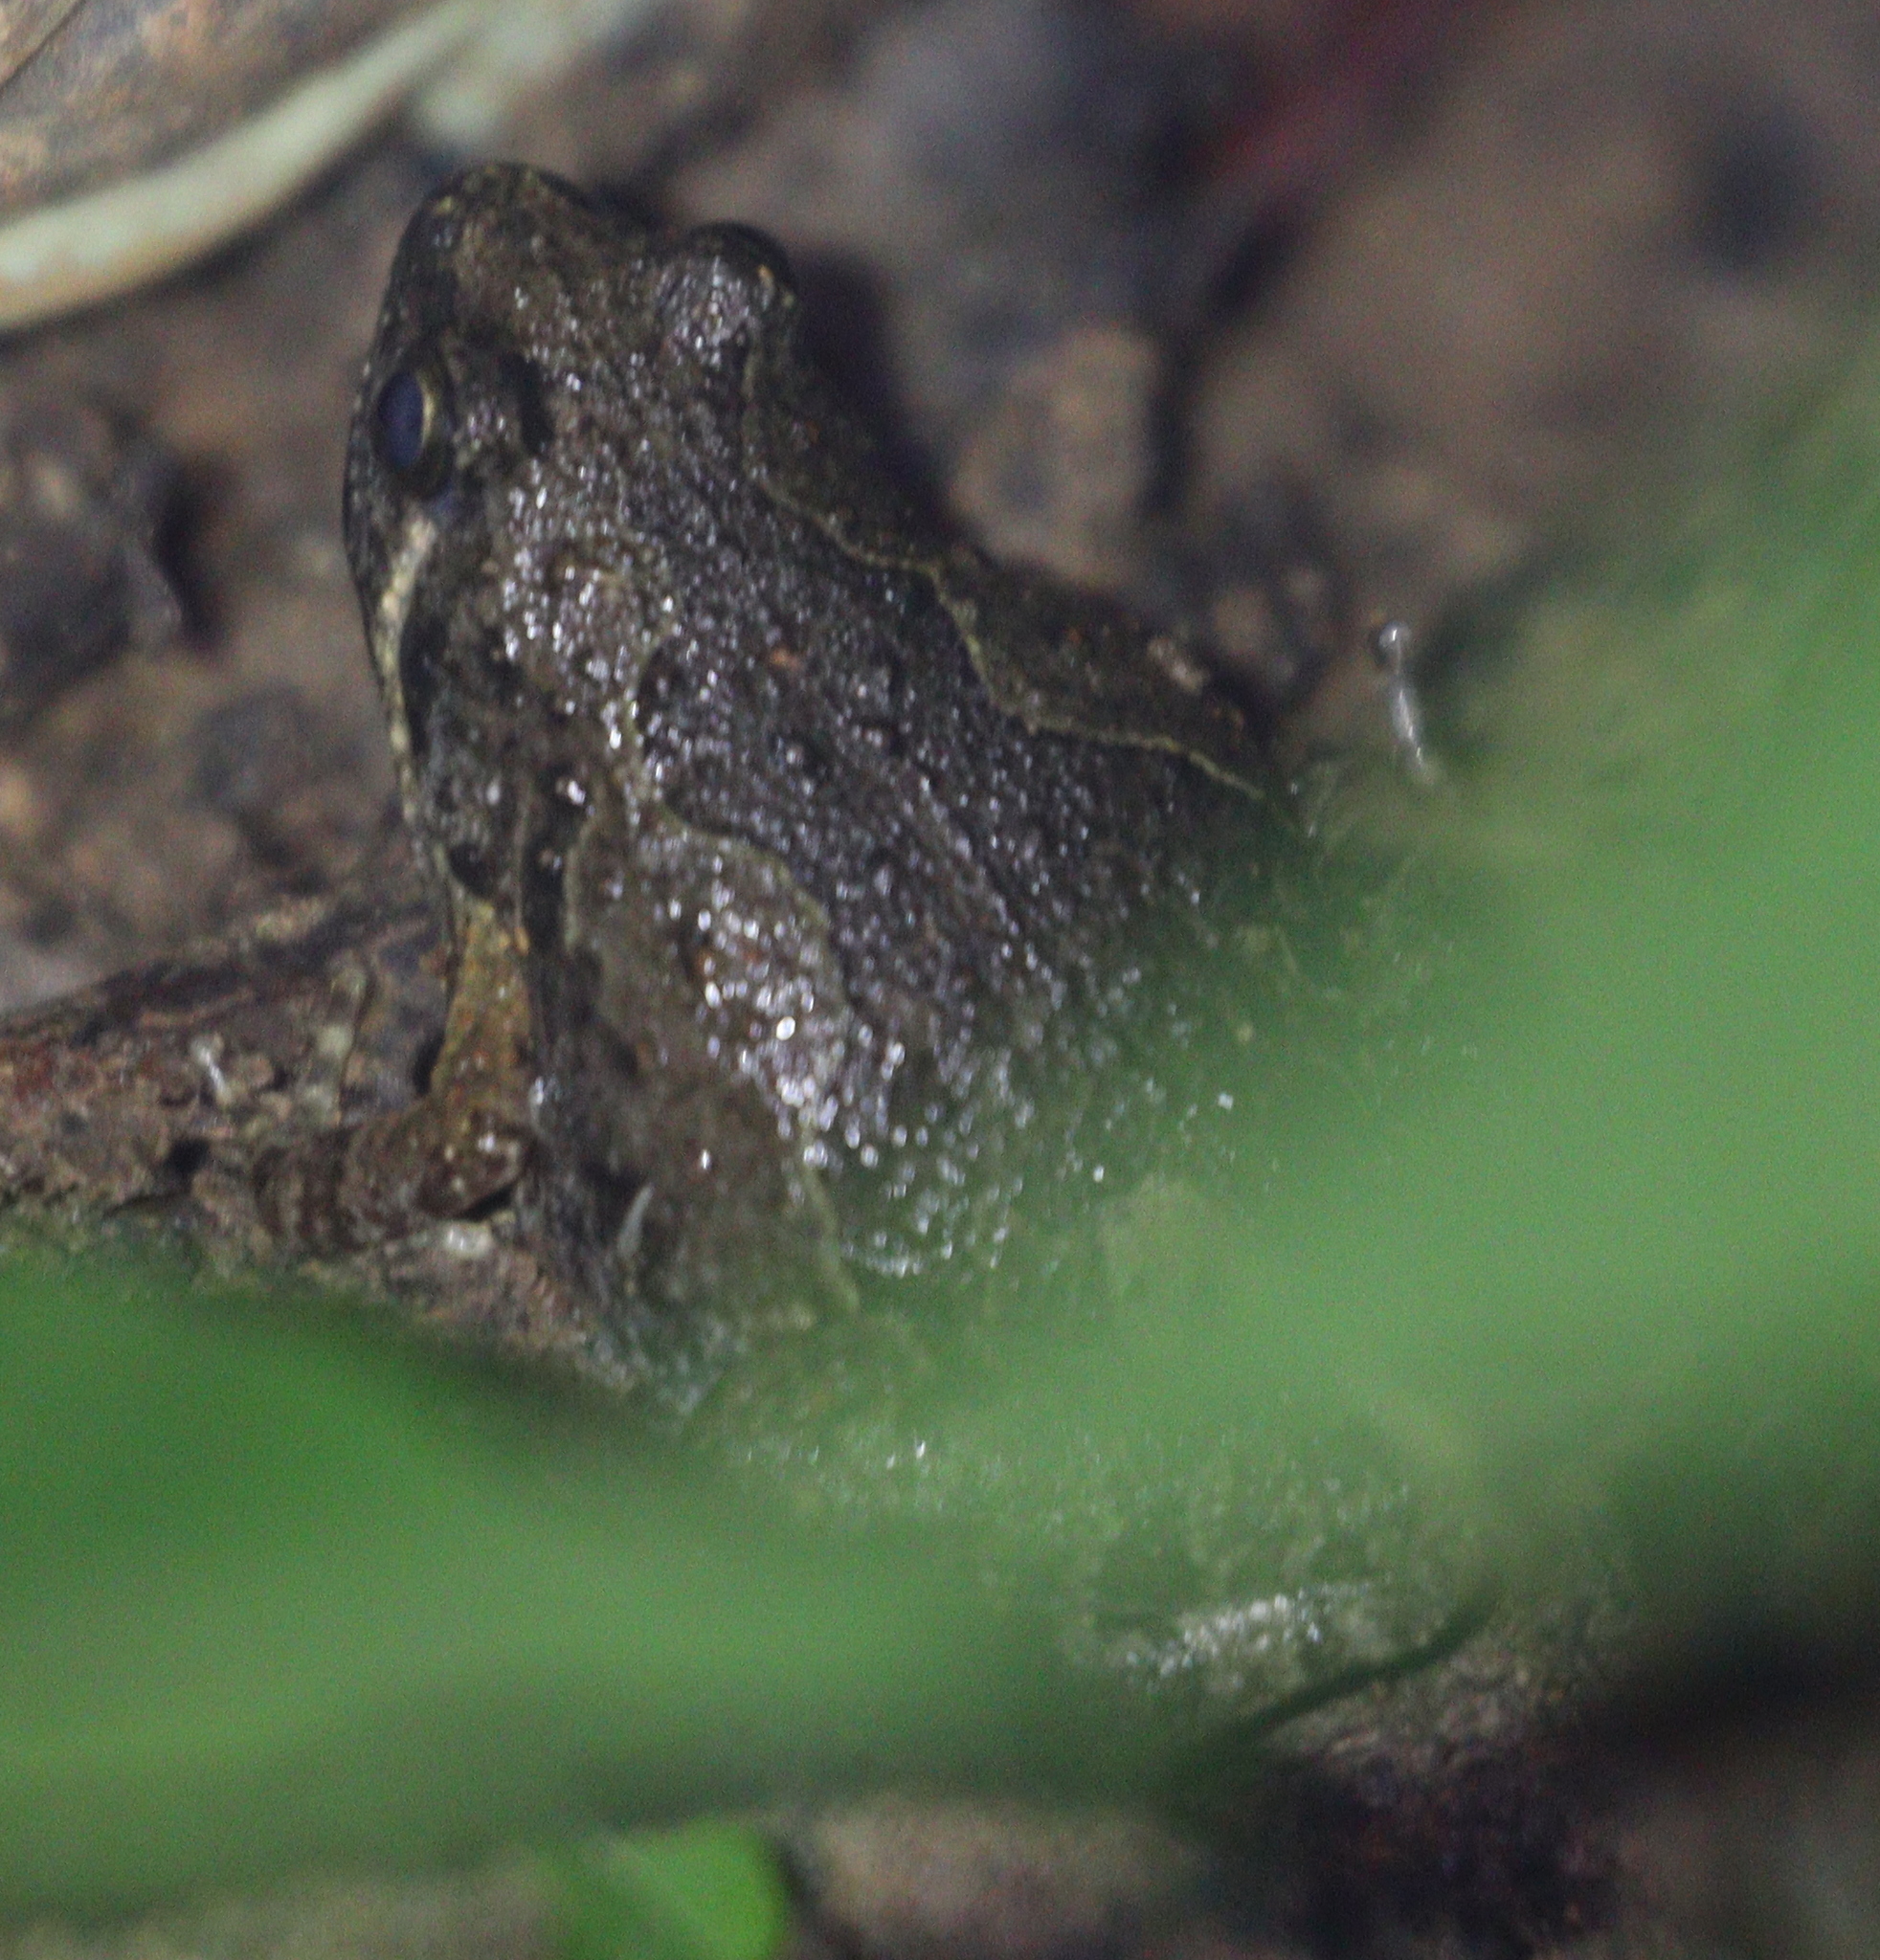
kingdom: Animalia
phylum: Chordata
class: Amphibia
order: Anura
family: Microhylidae
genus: Microhyla
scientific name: Microhyla butleri
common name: Butler’s rice frog,painted chorus frog,tubercled pygmy frog
